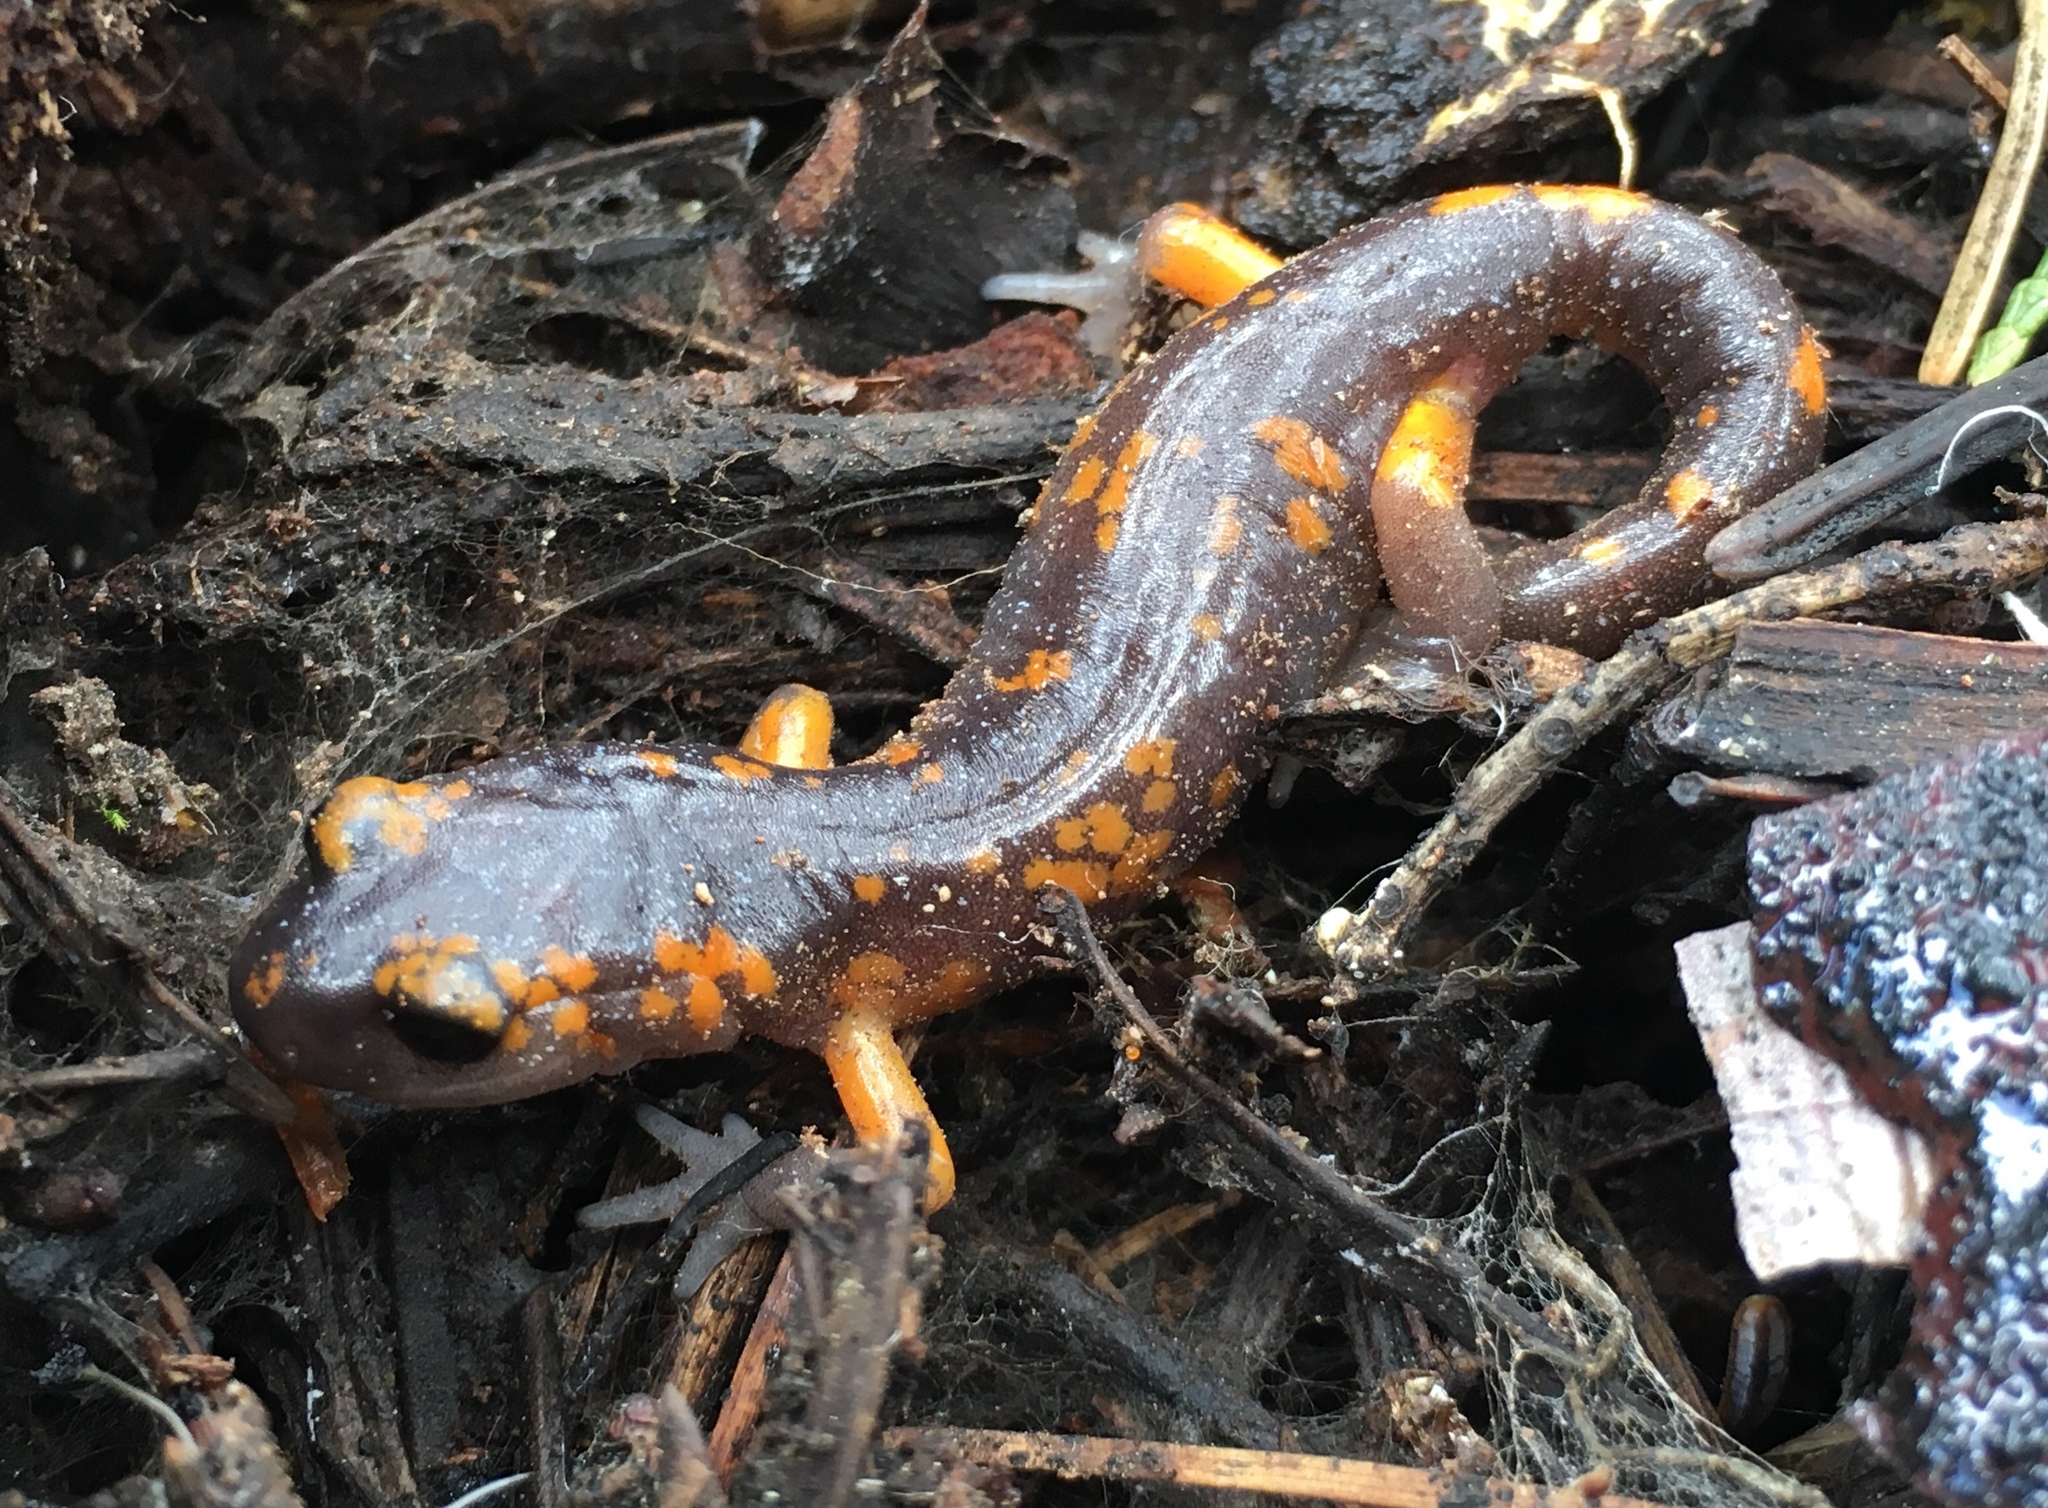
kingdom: Animalia
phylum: Chordata
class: Amphibia
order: Caudata
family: Plethodontidae
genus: Ensatina
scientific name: Ensatina eschscholtzii
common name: Ensatina
